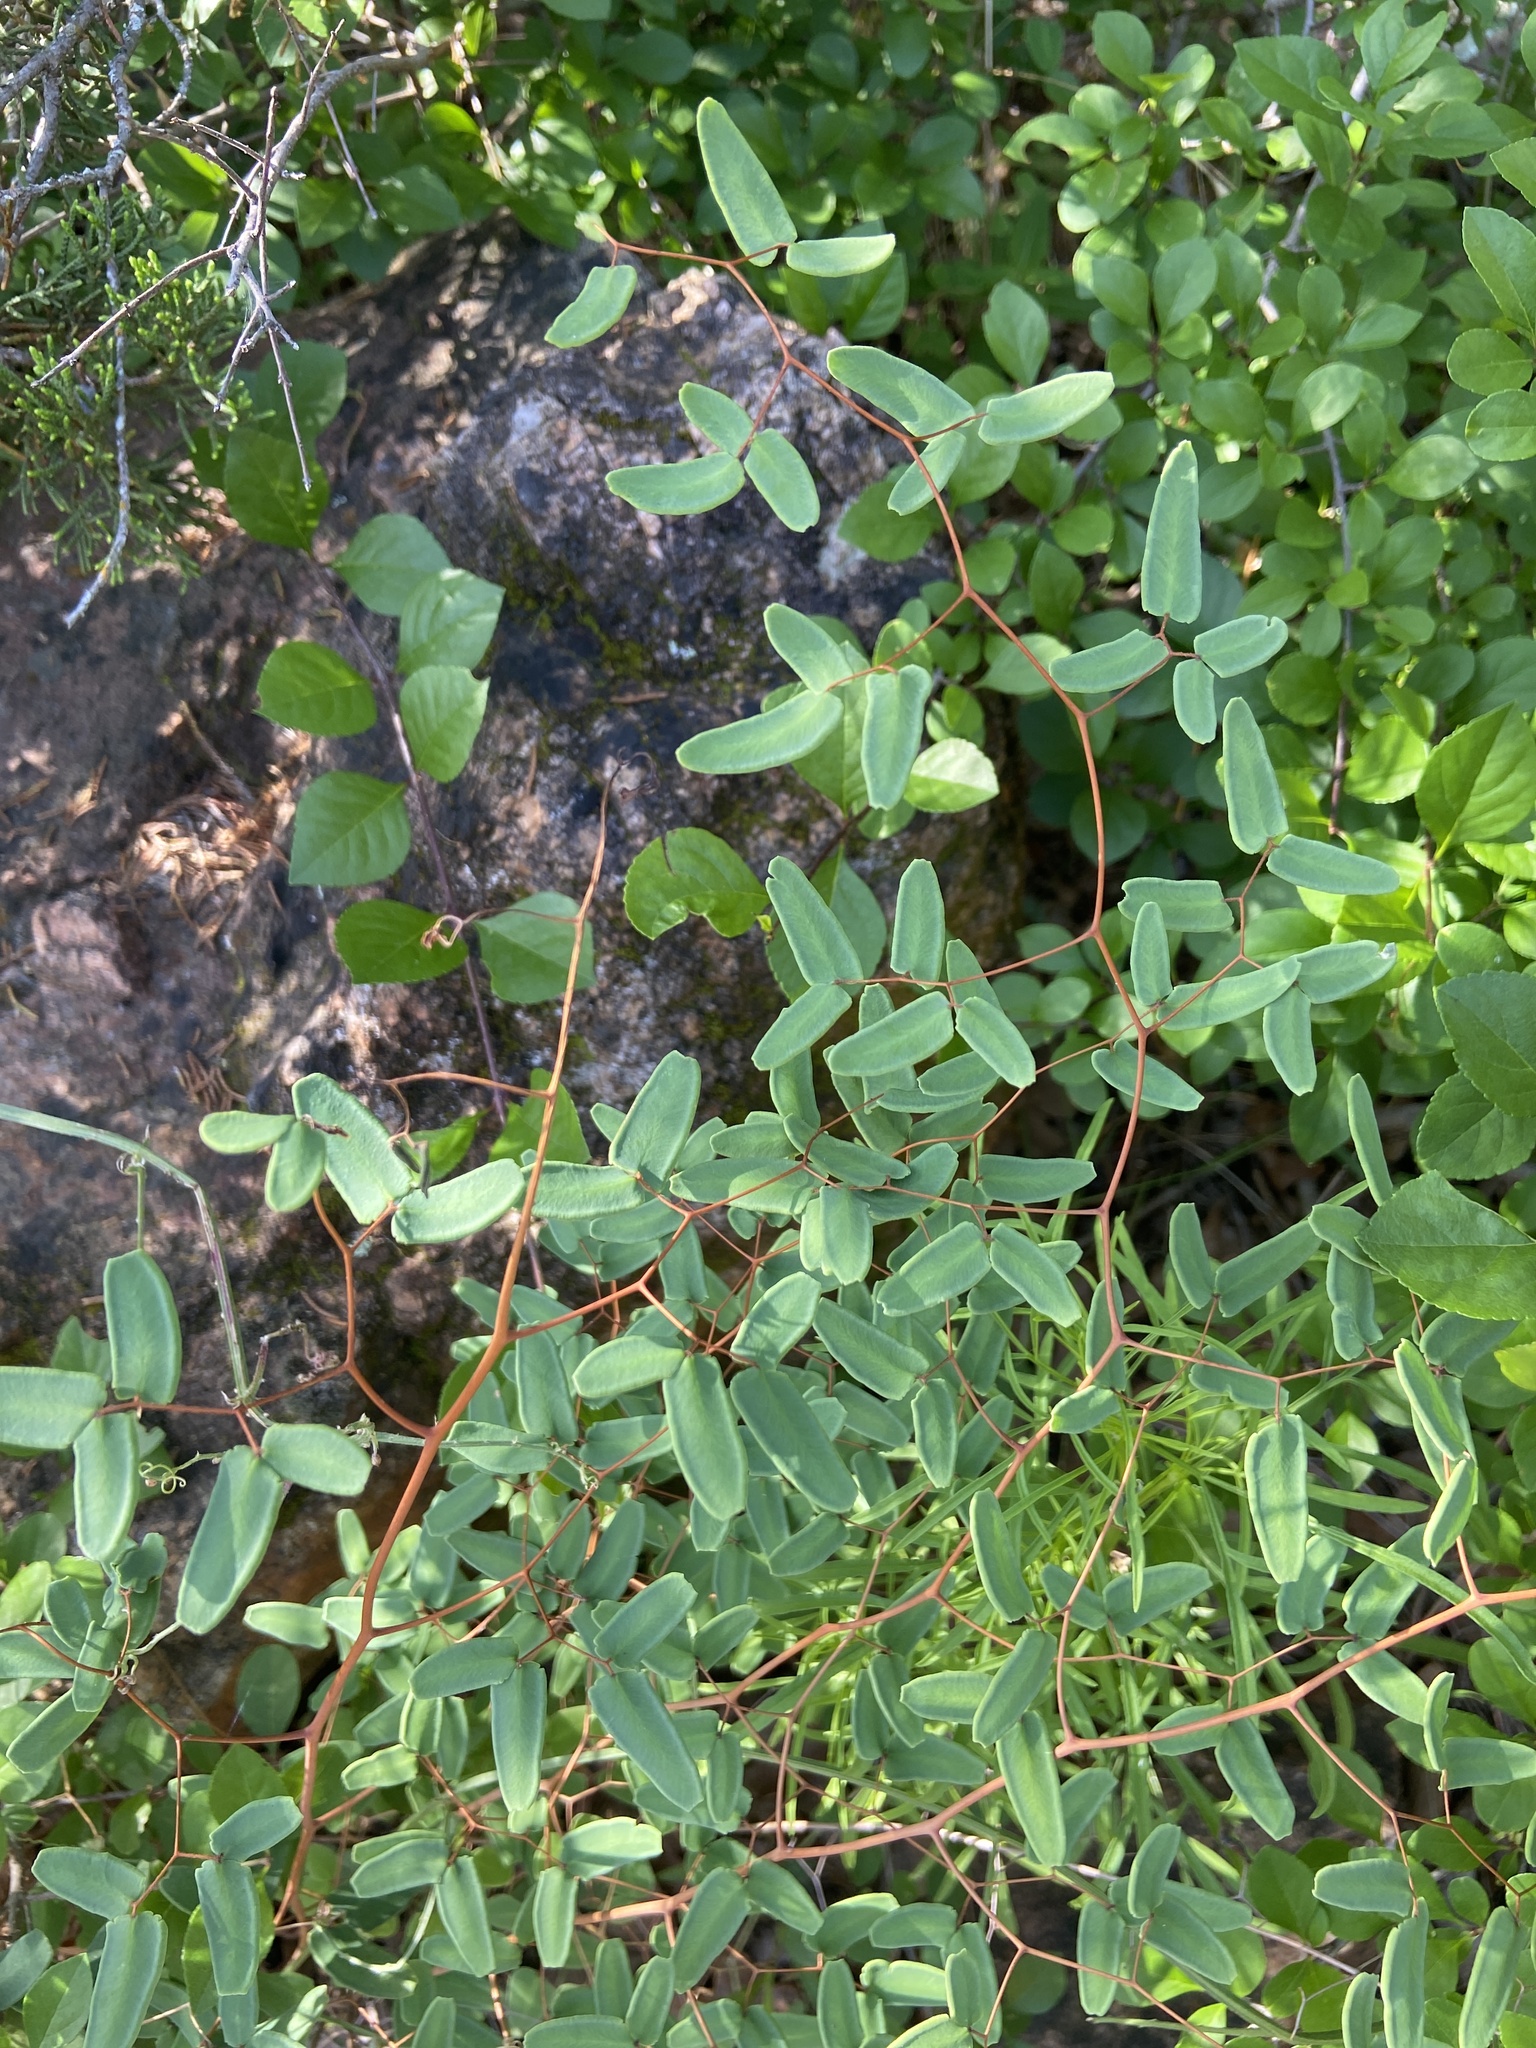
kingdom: Plantae
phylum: Tracheophyta
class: Polypodiopsida
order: Polypodiales
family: Pteridaceae
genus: Pellaea
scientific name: Pellaea ovata
